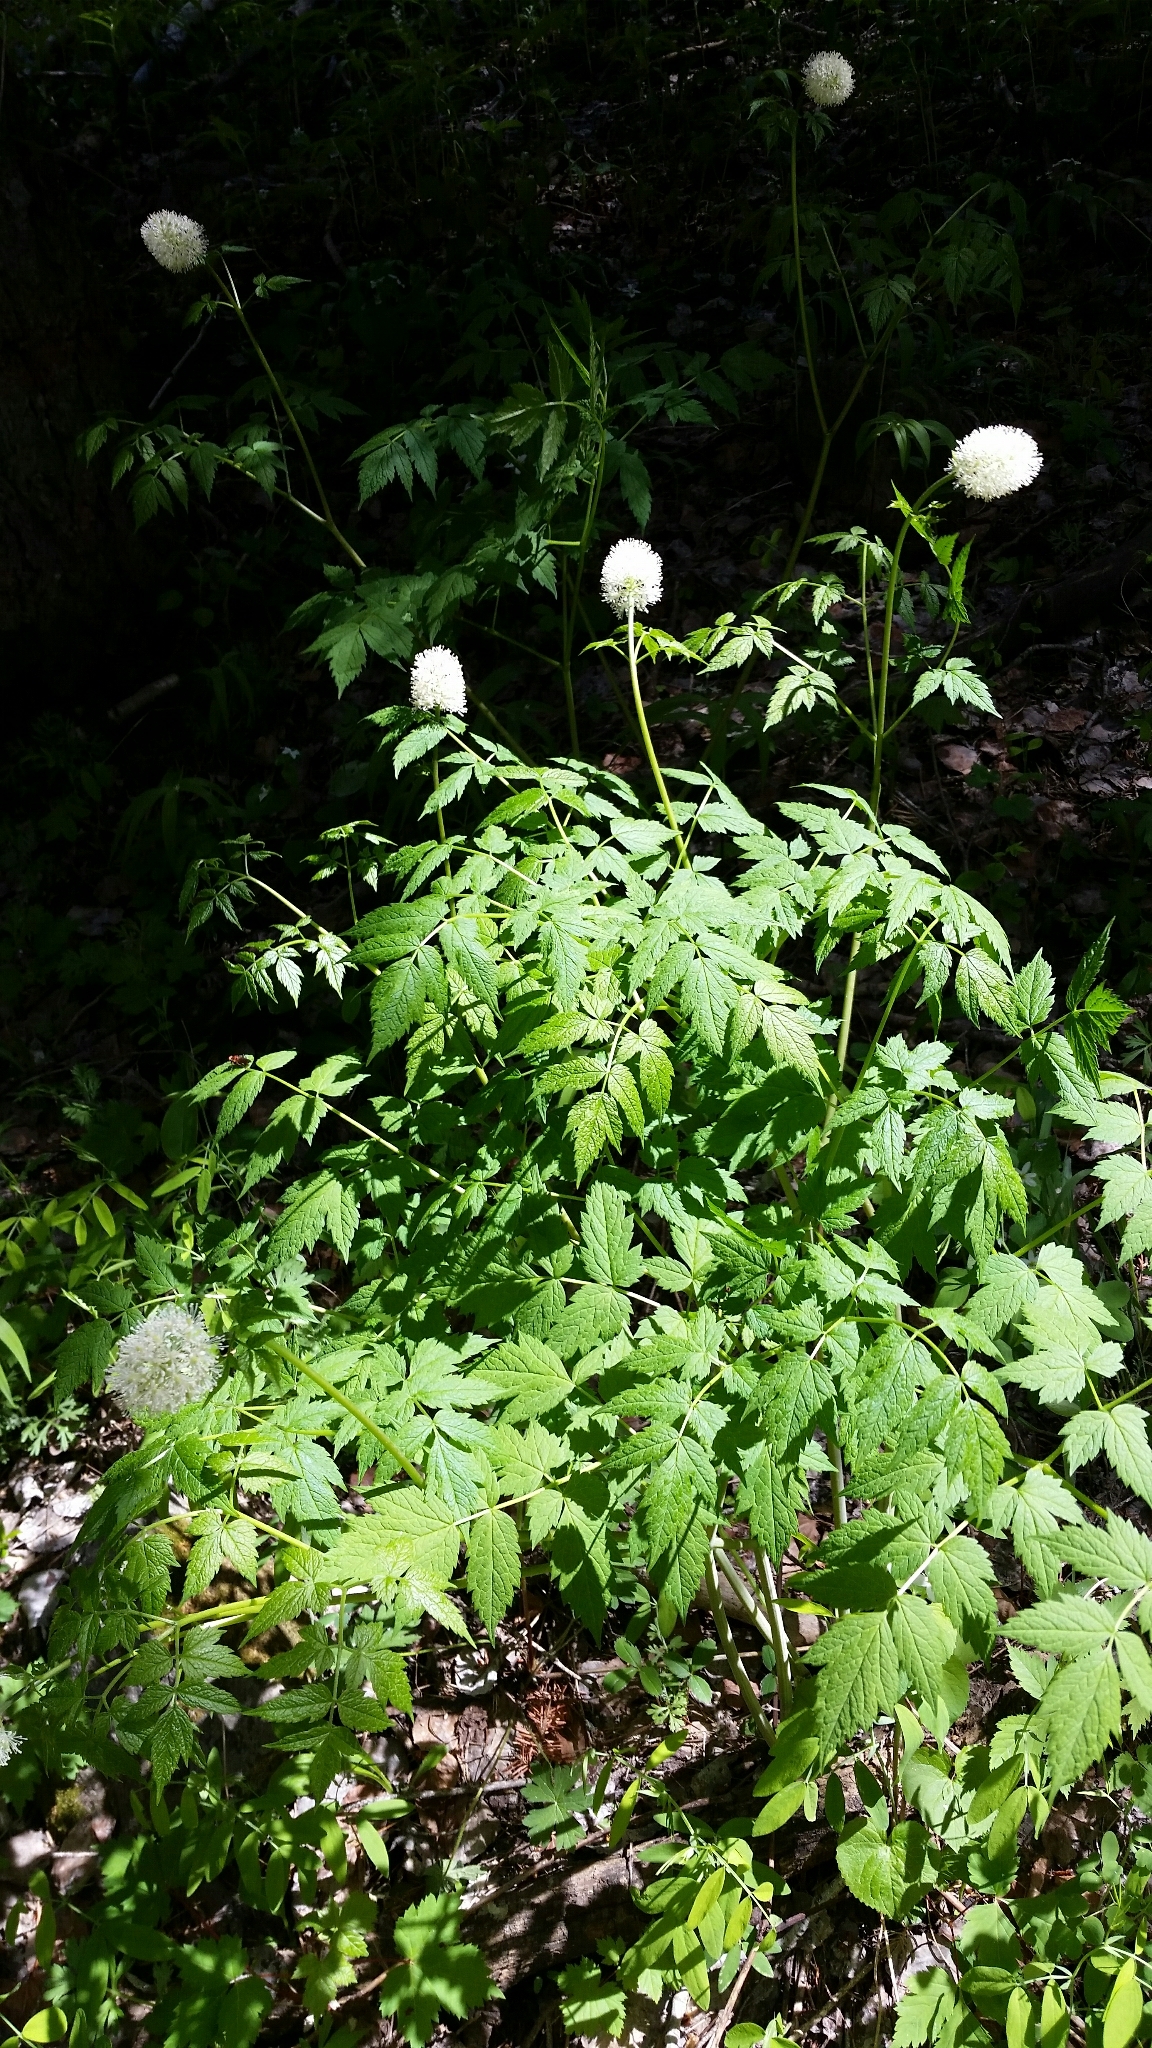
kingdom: Plantae
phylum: Tracheophyta
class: Magnoliopsida
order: Ranunculales
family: Ranunculaceae
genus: Actaea
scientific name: Actaea rubra
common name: Red baneberry
